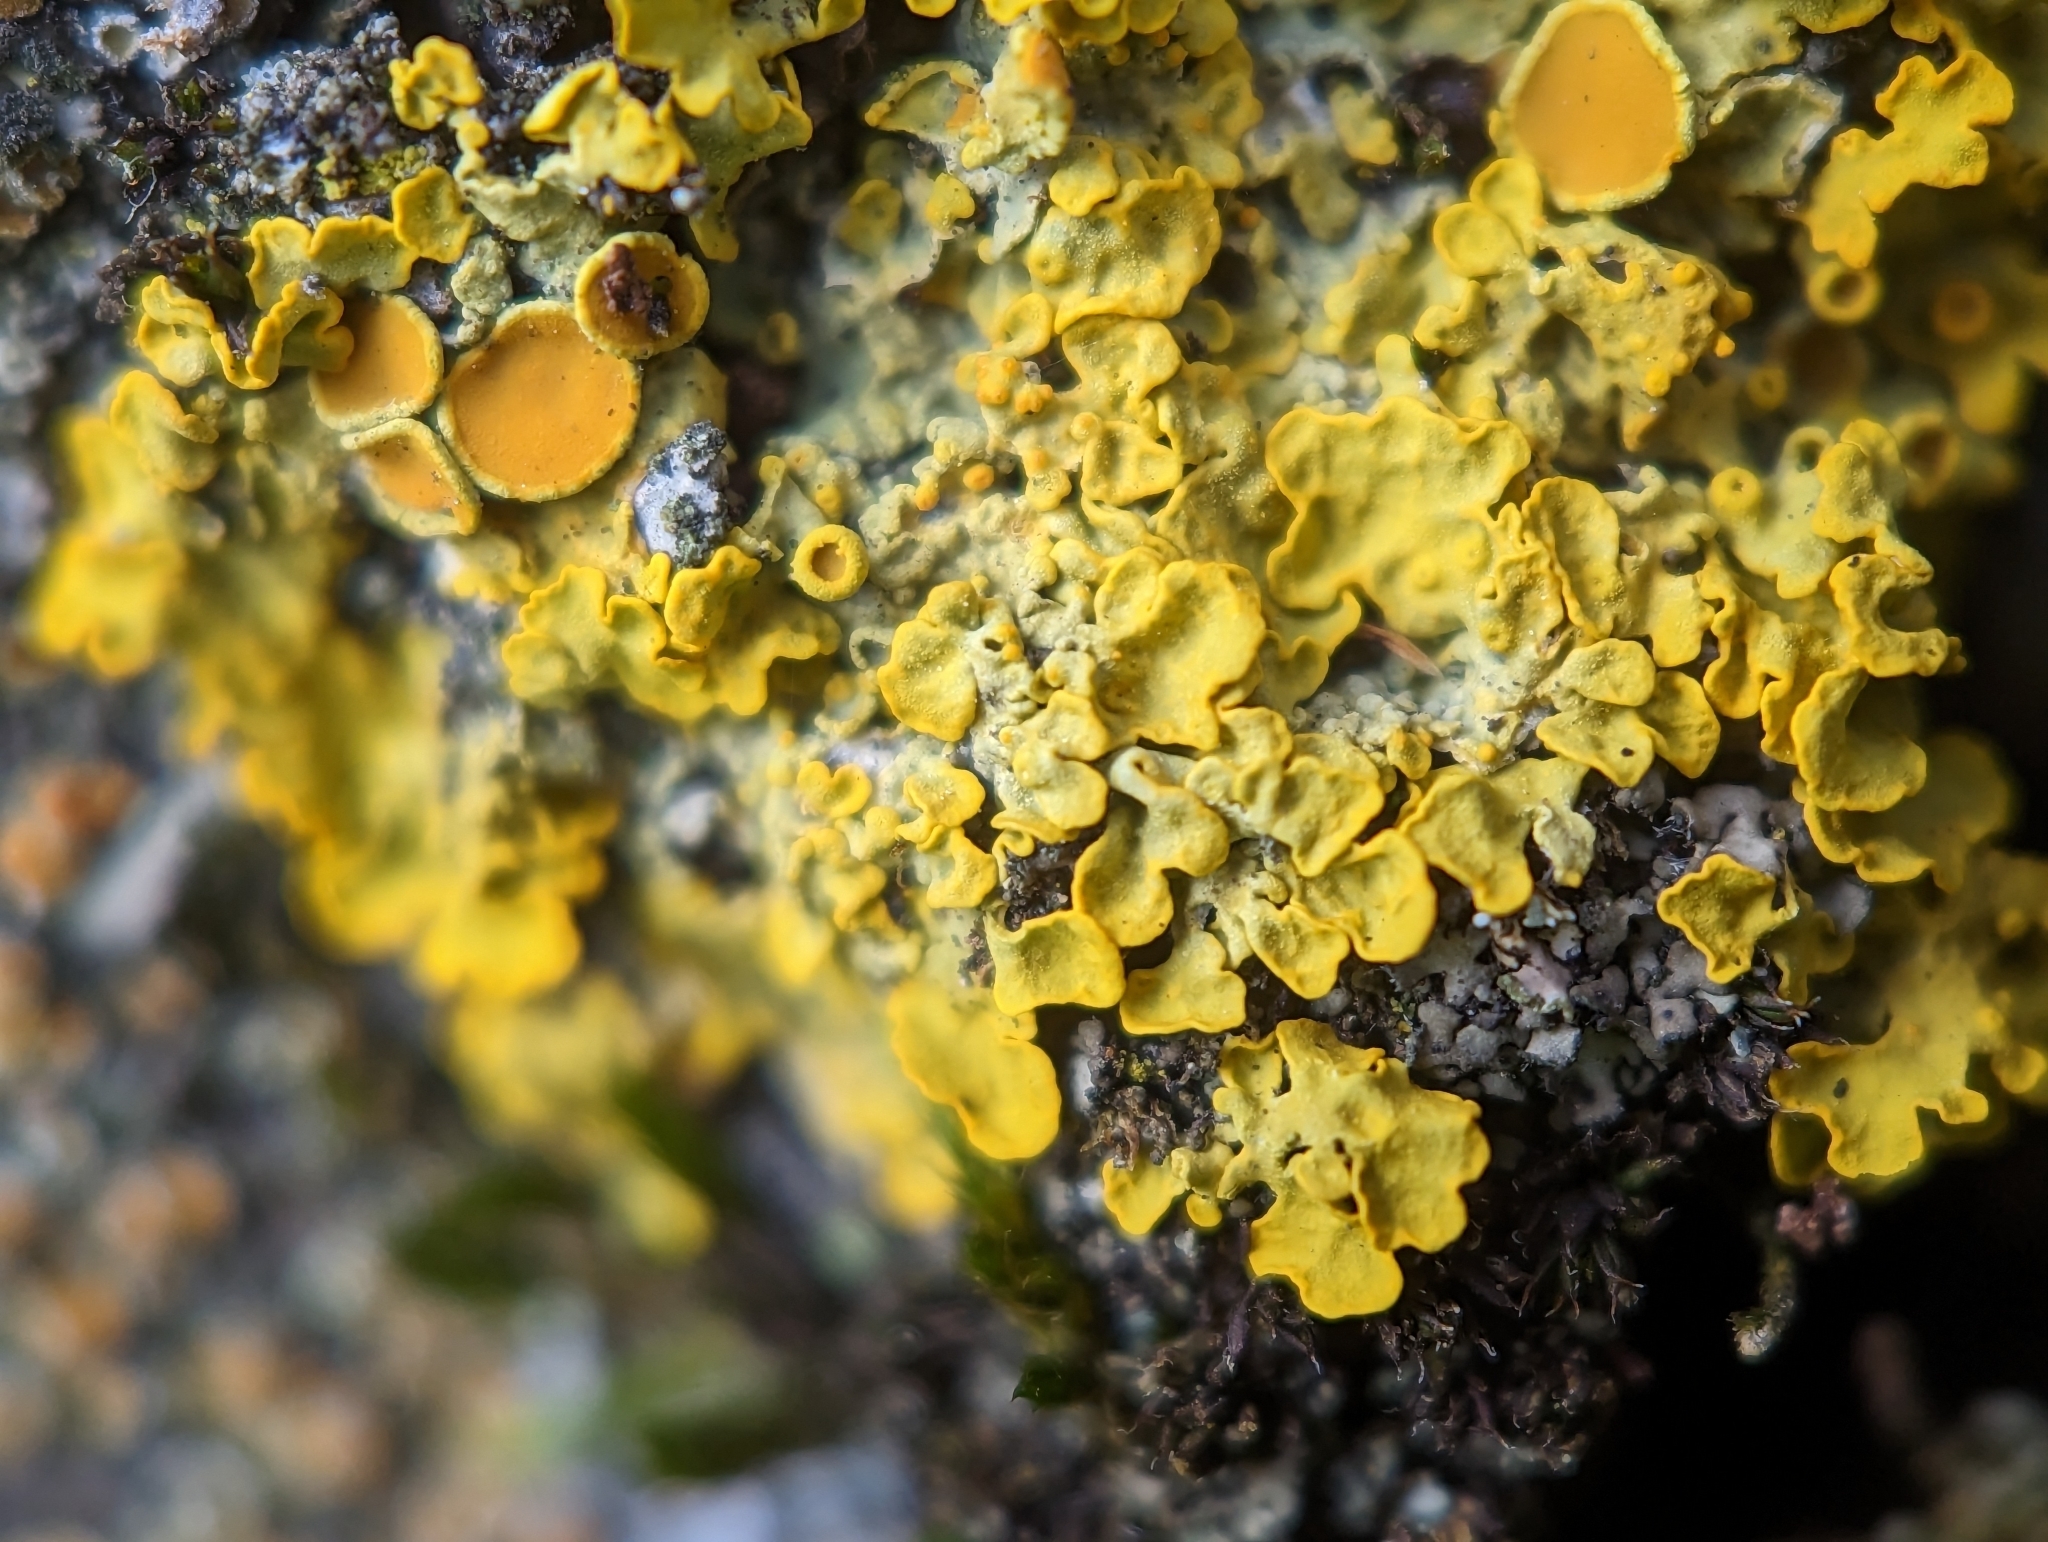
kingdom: Fungi
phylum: Ascomycota
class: Lecanoromycetes
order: Teloschistales
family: Teloschistaceae
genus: Xanthoria
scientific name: Xanthoria parietina
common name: Common orange lichen
